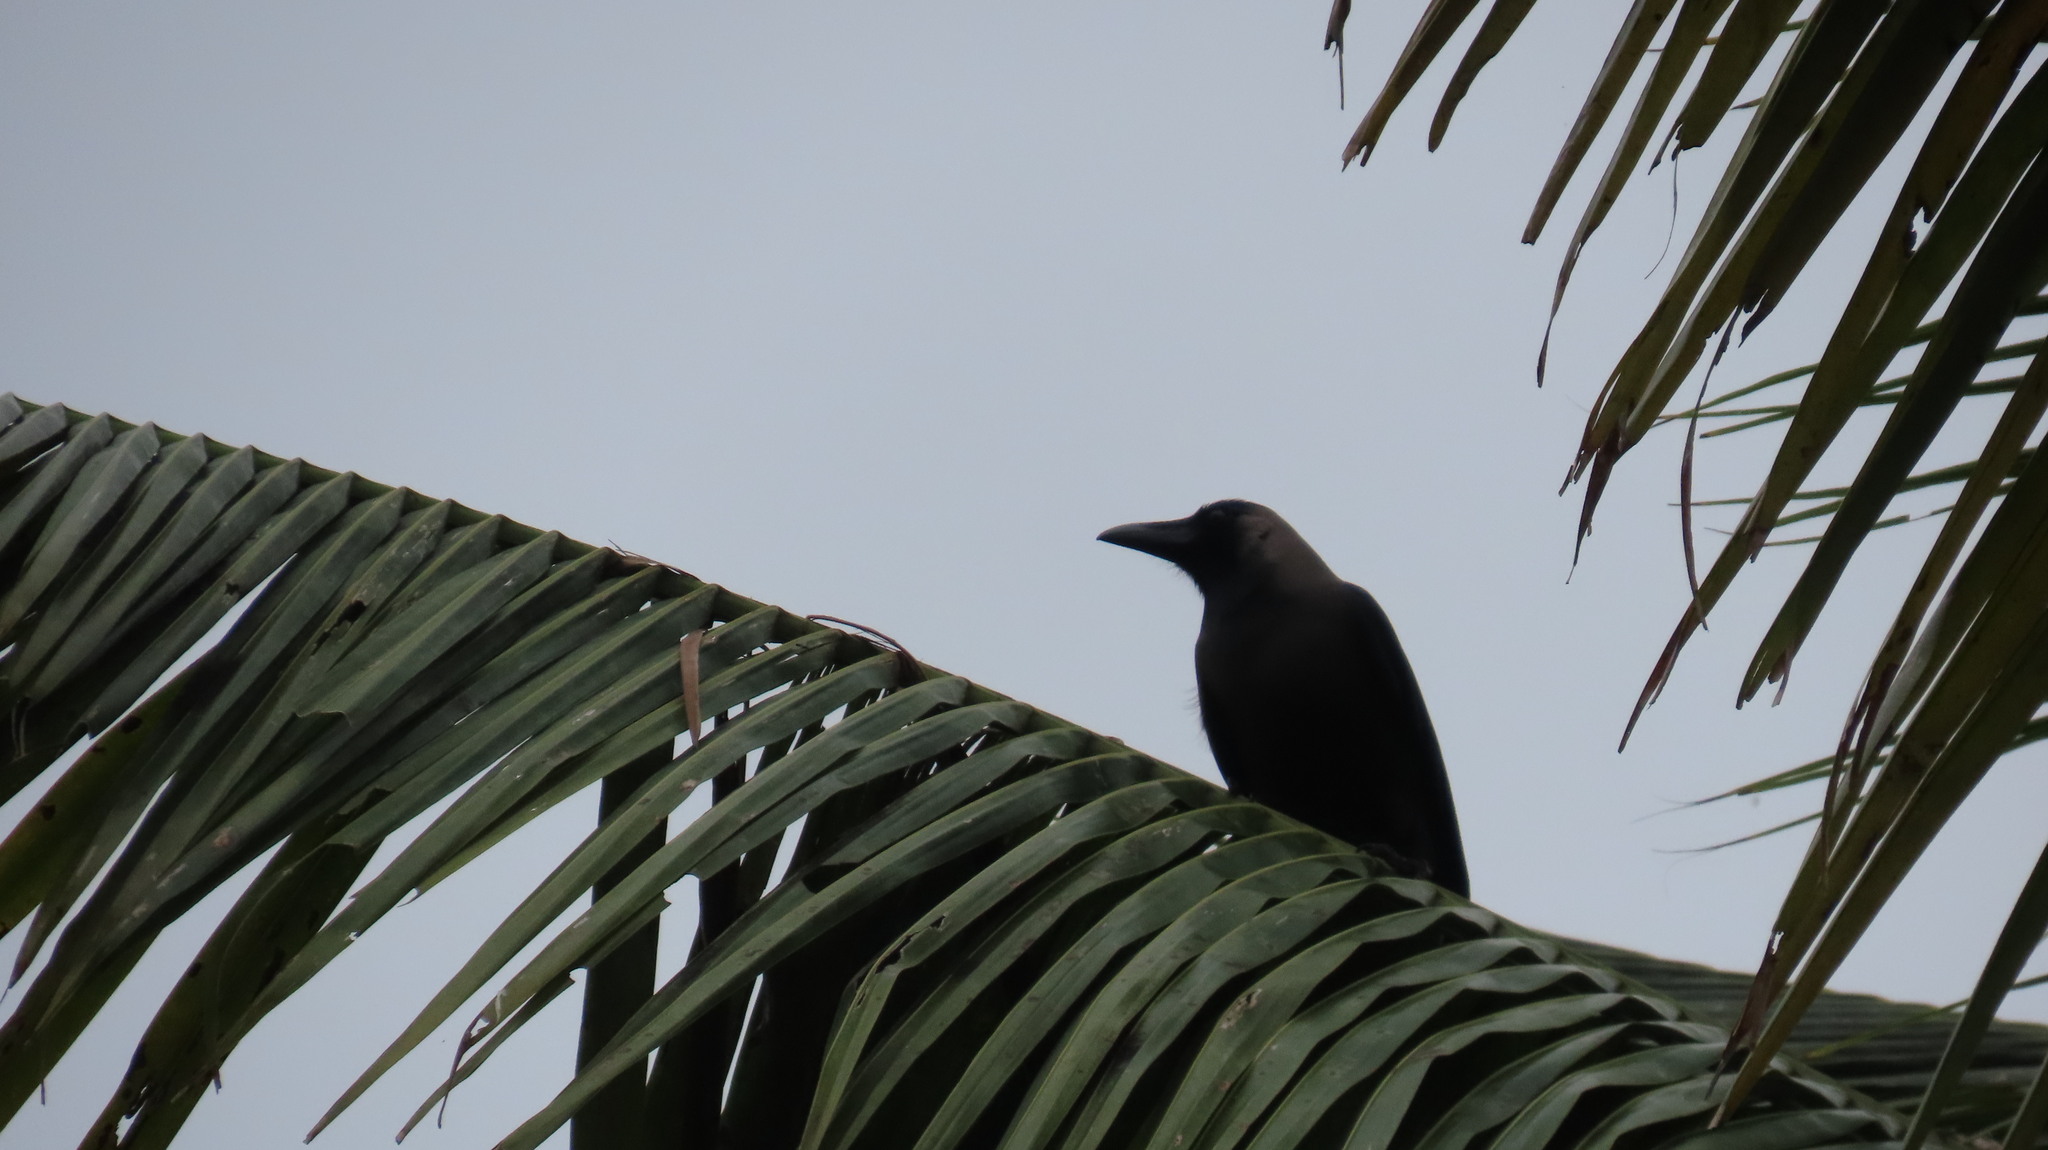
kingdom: Animalia
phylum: Chordata
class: Aves
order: Passeriformes
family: Corvidae
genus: Corvus
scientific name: Corvus splendens
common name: House crow
